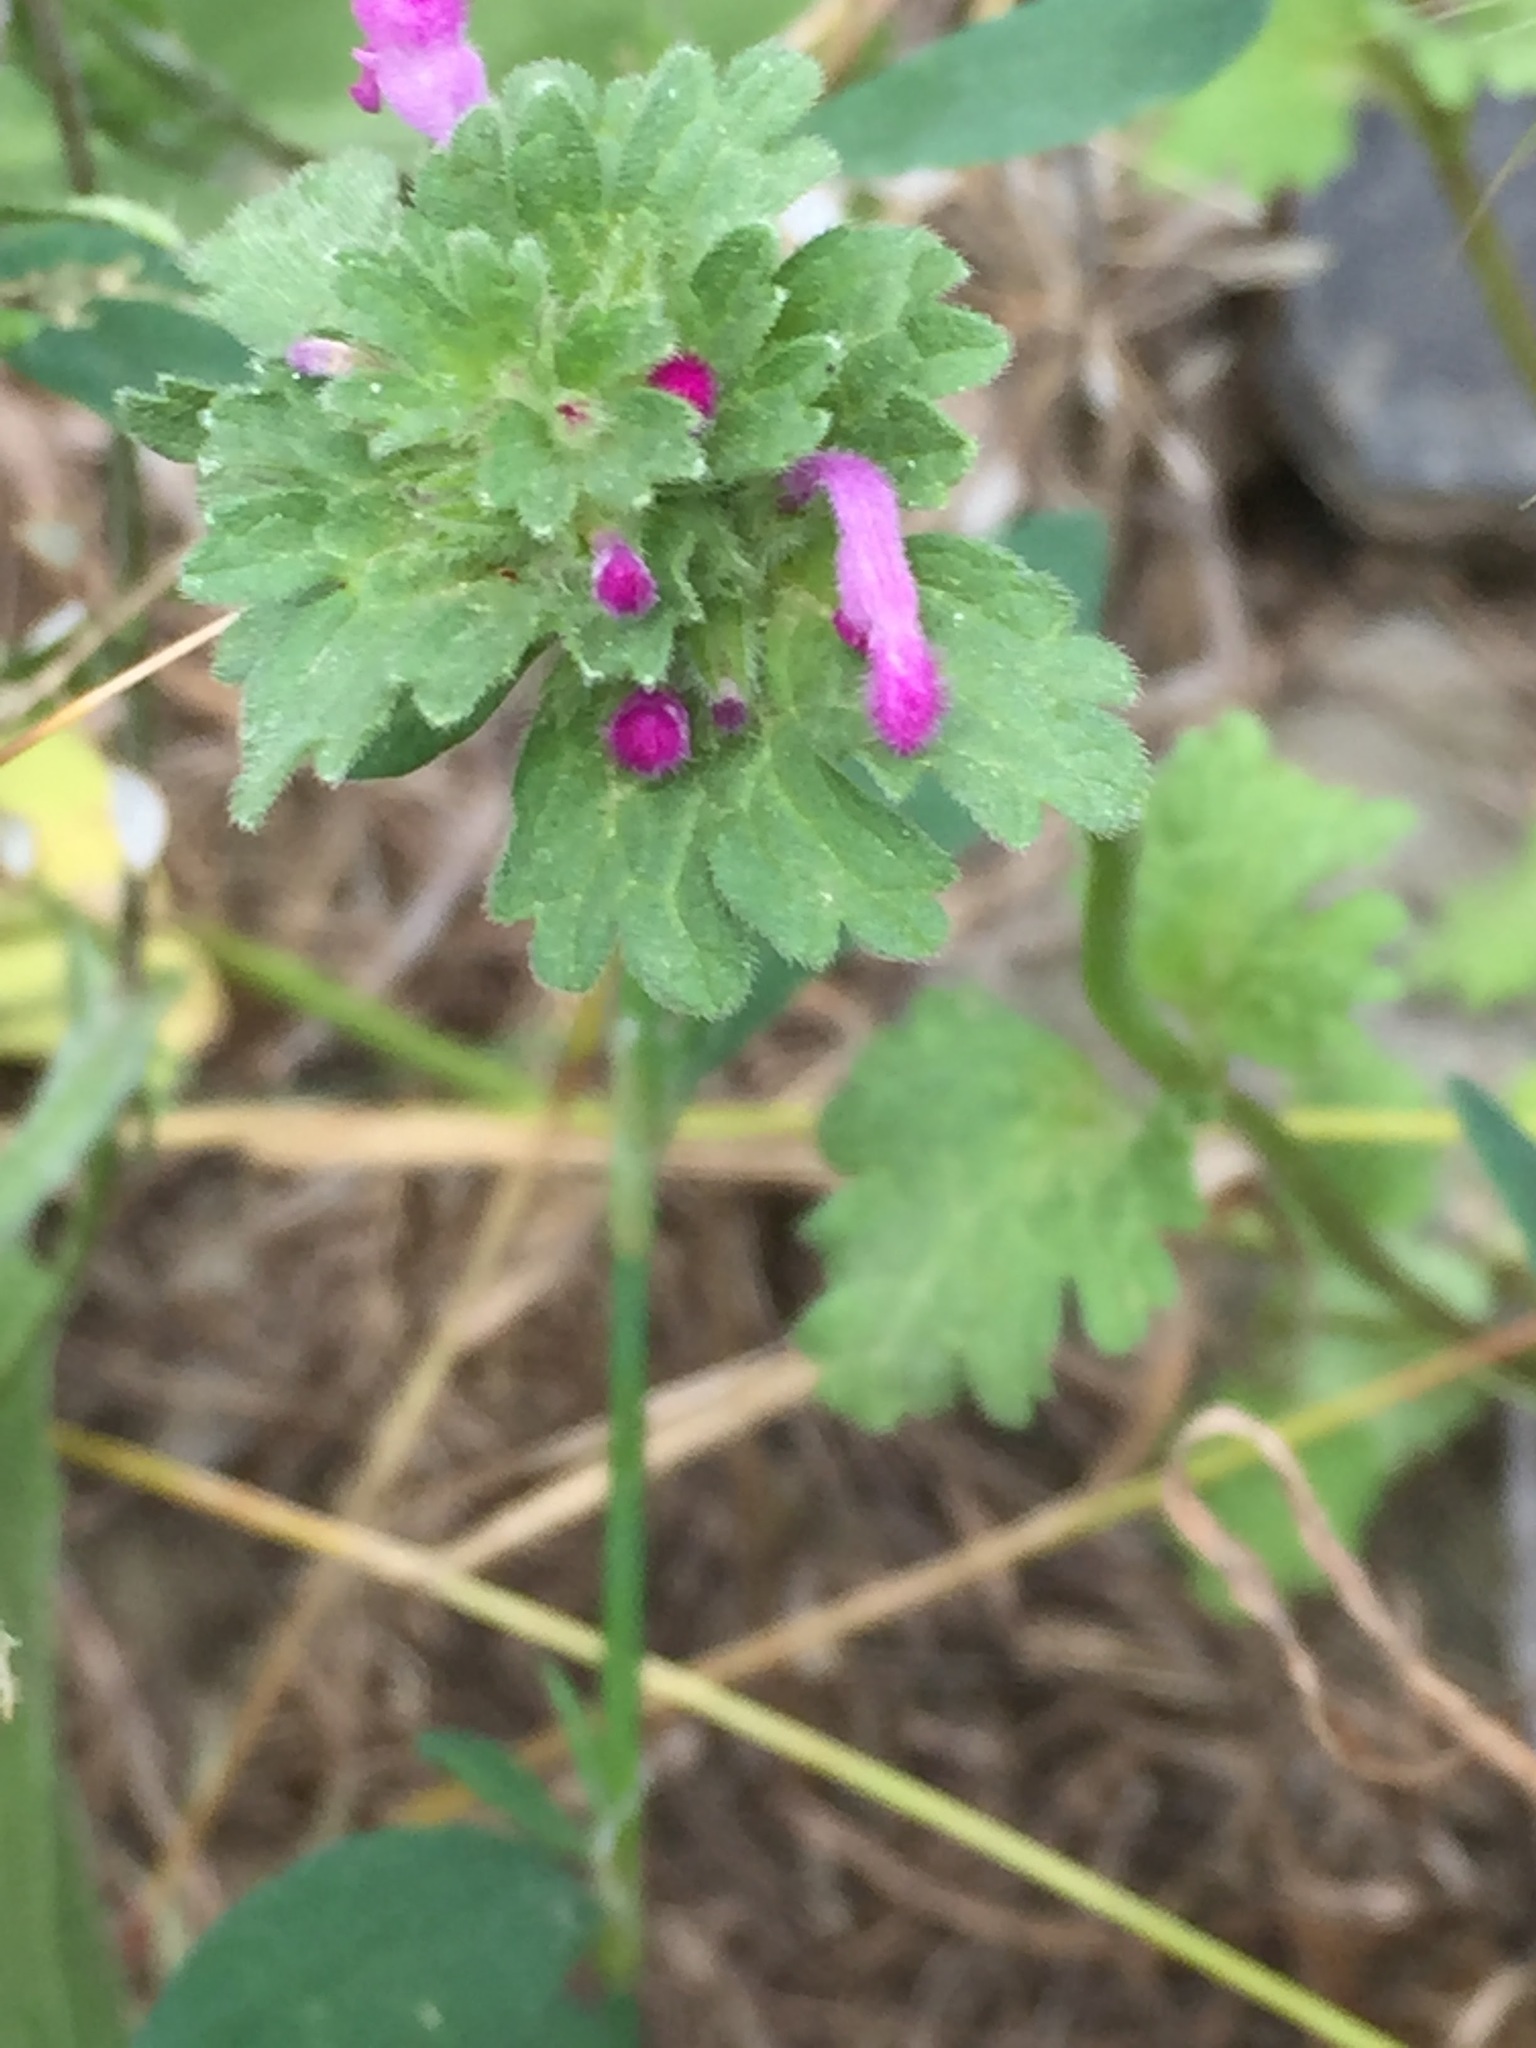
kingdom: Plantae
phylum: Tracheophyta
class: Magnoliopsida
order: Lamiales
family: Lamiaceae
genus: Lamium
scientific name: Lamium amplexicaule
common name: Henbit dead-nettle
